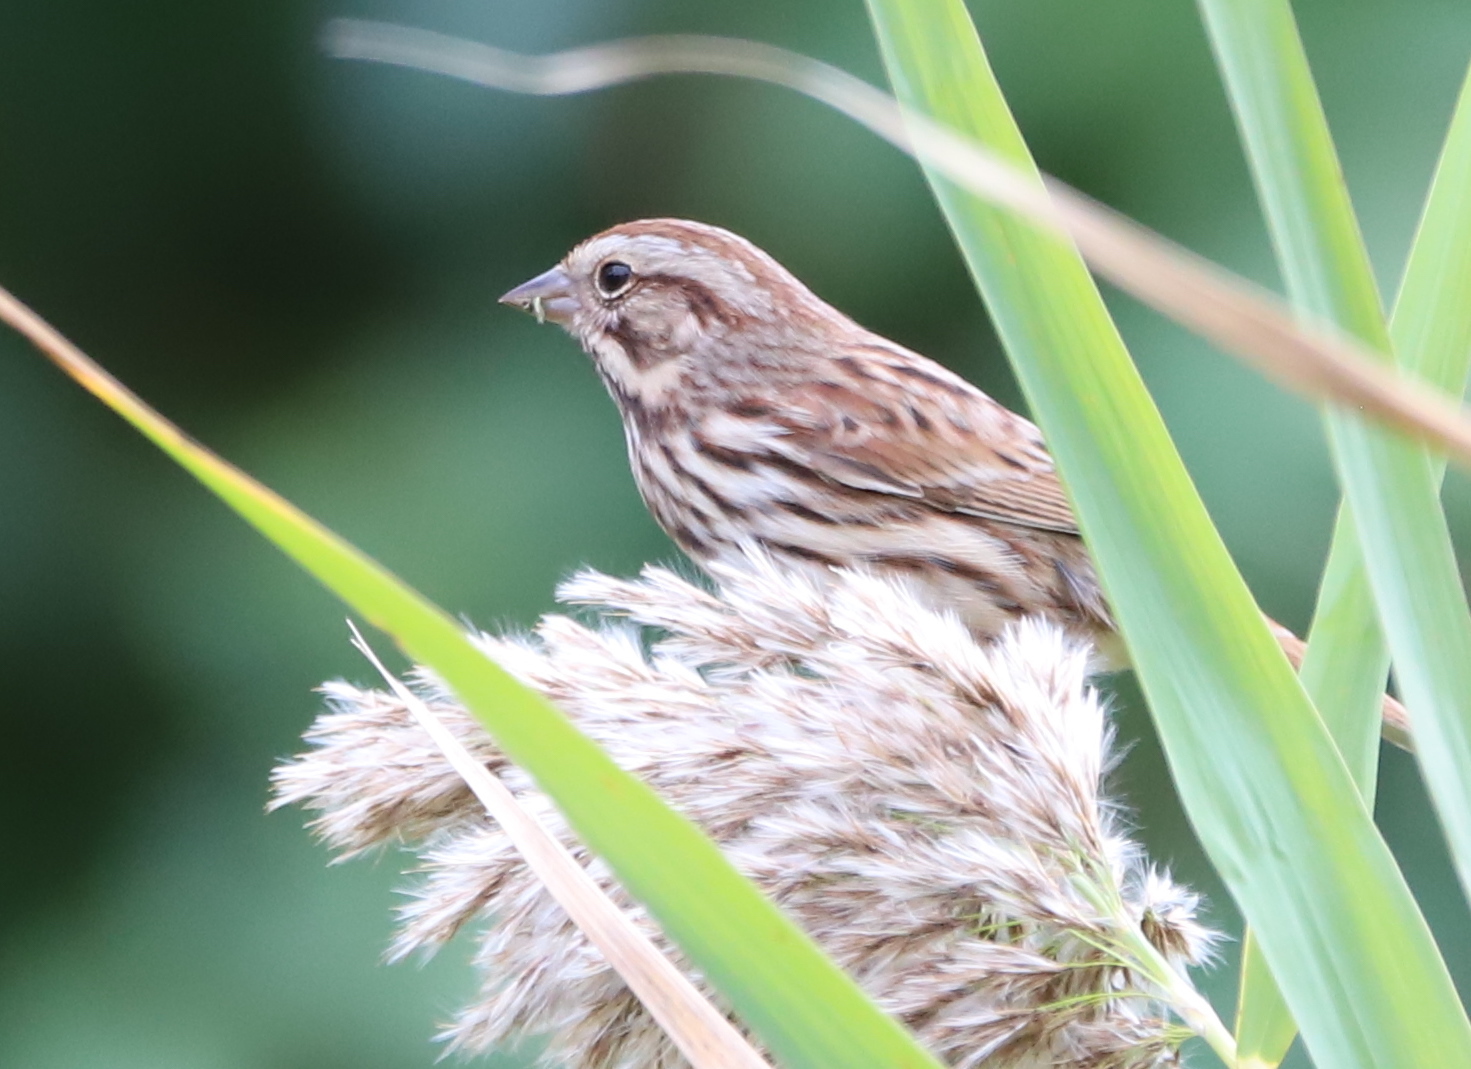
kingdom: Animalia
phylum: Chordata
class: Aves
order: Passeriformes
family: Passerellidae
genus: Melospiza
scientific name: Melospiza melodia
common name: Song sparrow
